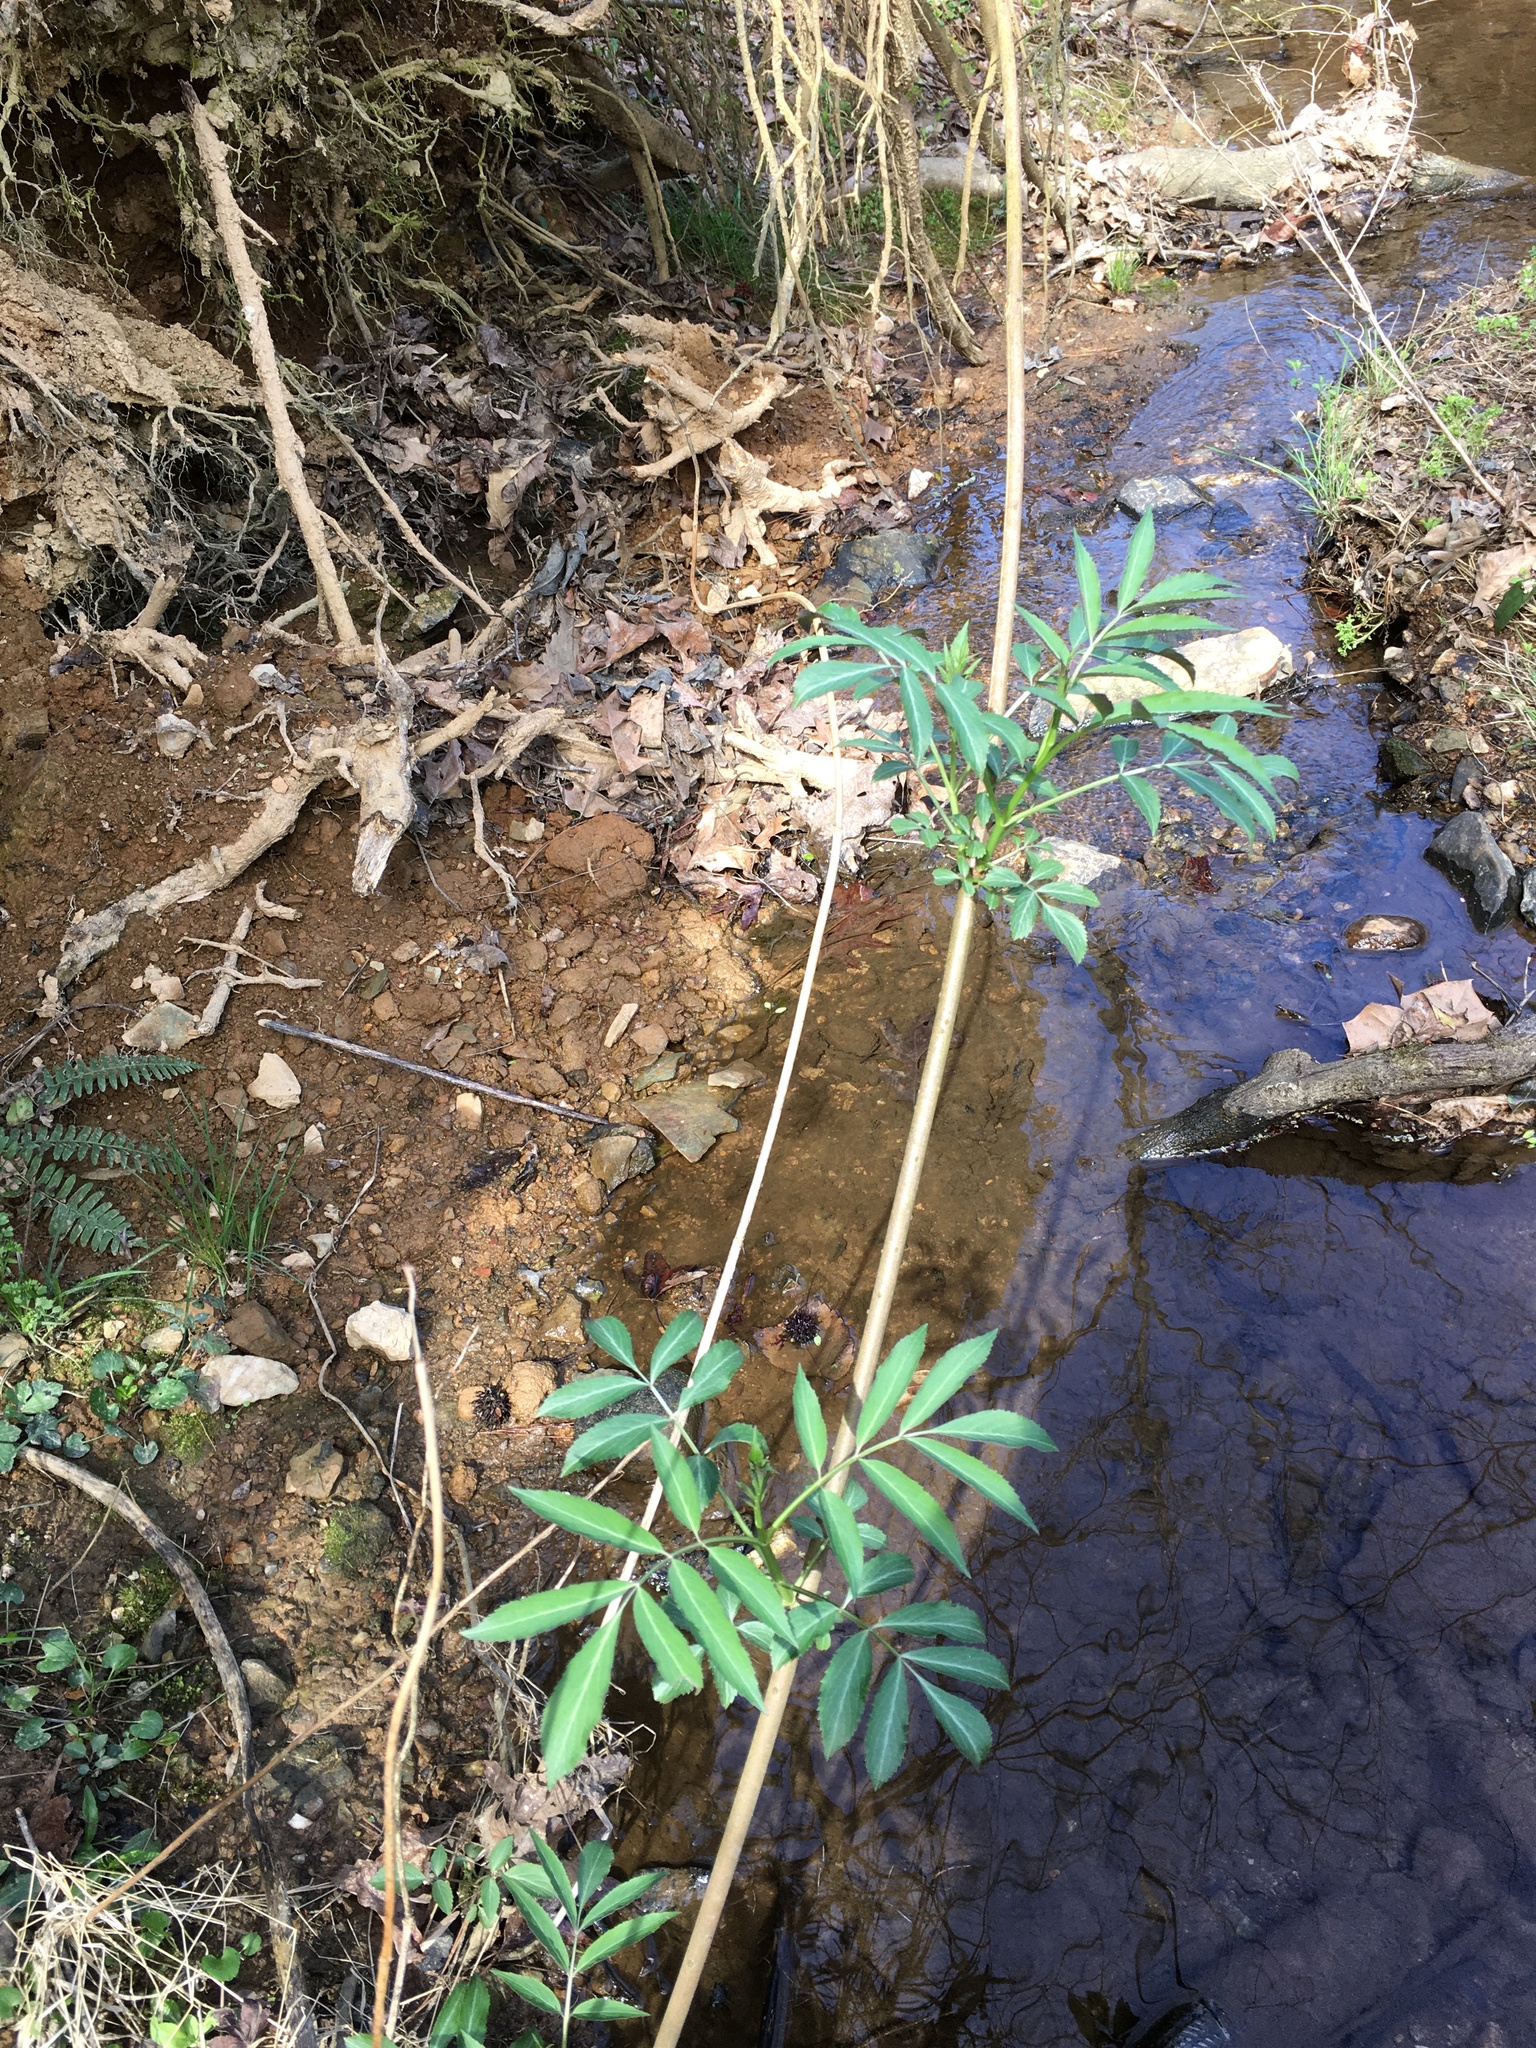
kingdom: Plantae
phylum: Tracheophyta
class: Magnoliopsida
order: Dipsacales
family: Viburnaceae
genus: Sambucus
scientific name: Sambucus canadensis
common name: American elder
